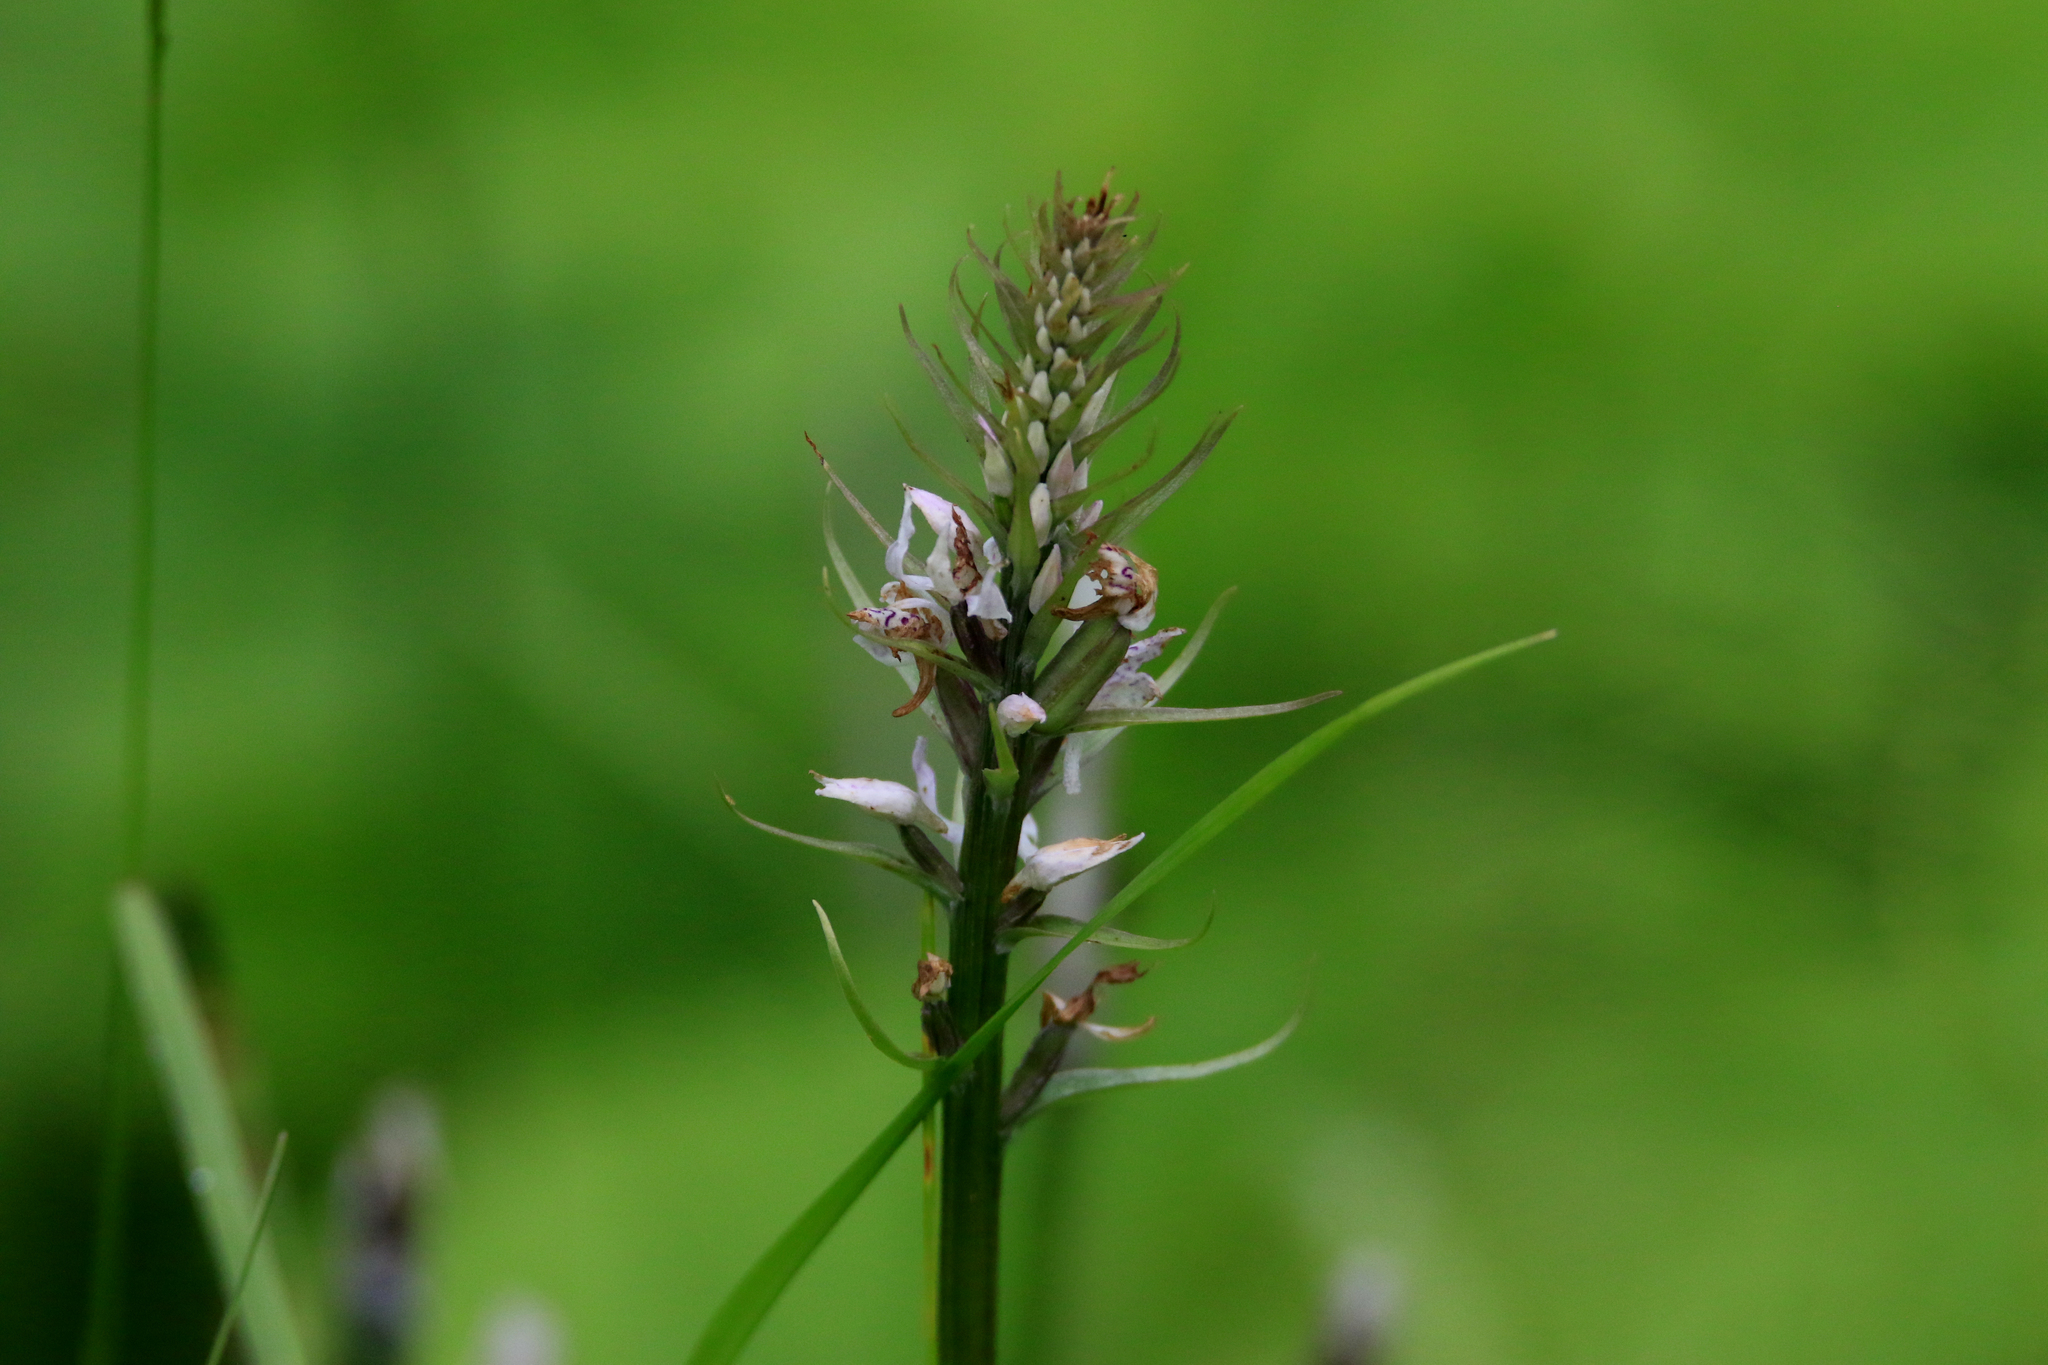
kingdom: Plantae
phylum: Tracheophyta
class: Liliopsida
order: Asparagales
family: Orchidaceae
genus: Dactylorhiza
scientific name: Dactylorhiza maculata
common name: Heath spotted-orchid
